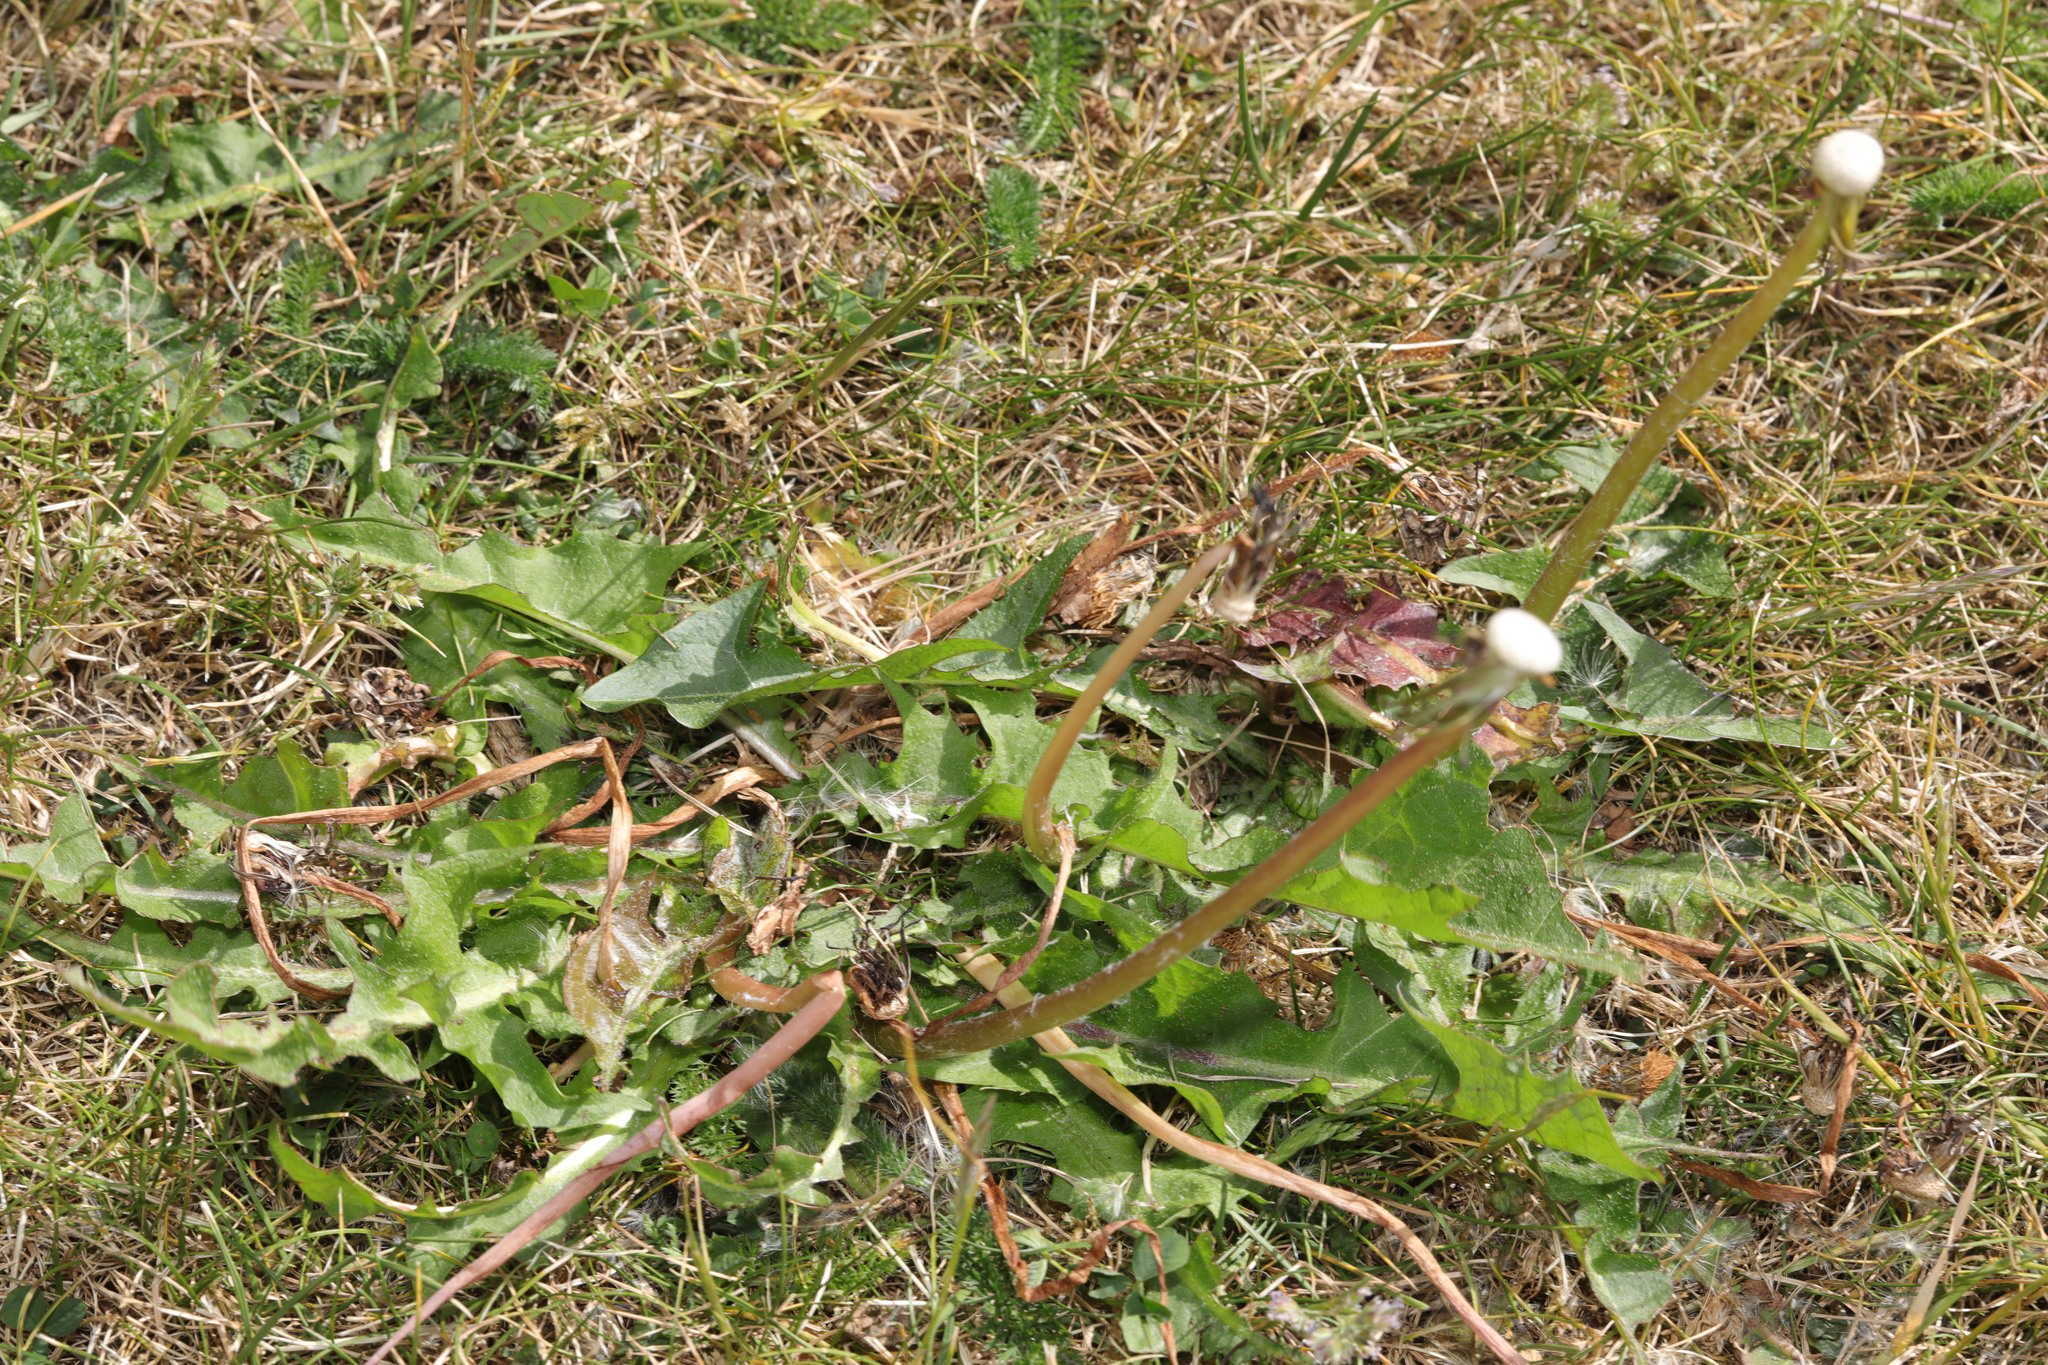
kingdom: Plantae
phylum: Tracheophyta
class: Magnoliopsida
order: Asterales
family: Asteraceae
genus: Taraxacum
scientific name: Taraxacum officinale
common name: Common dandelion
